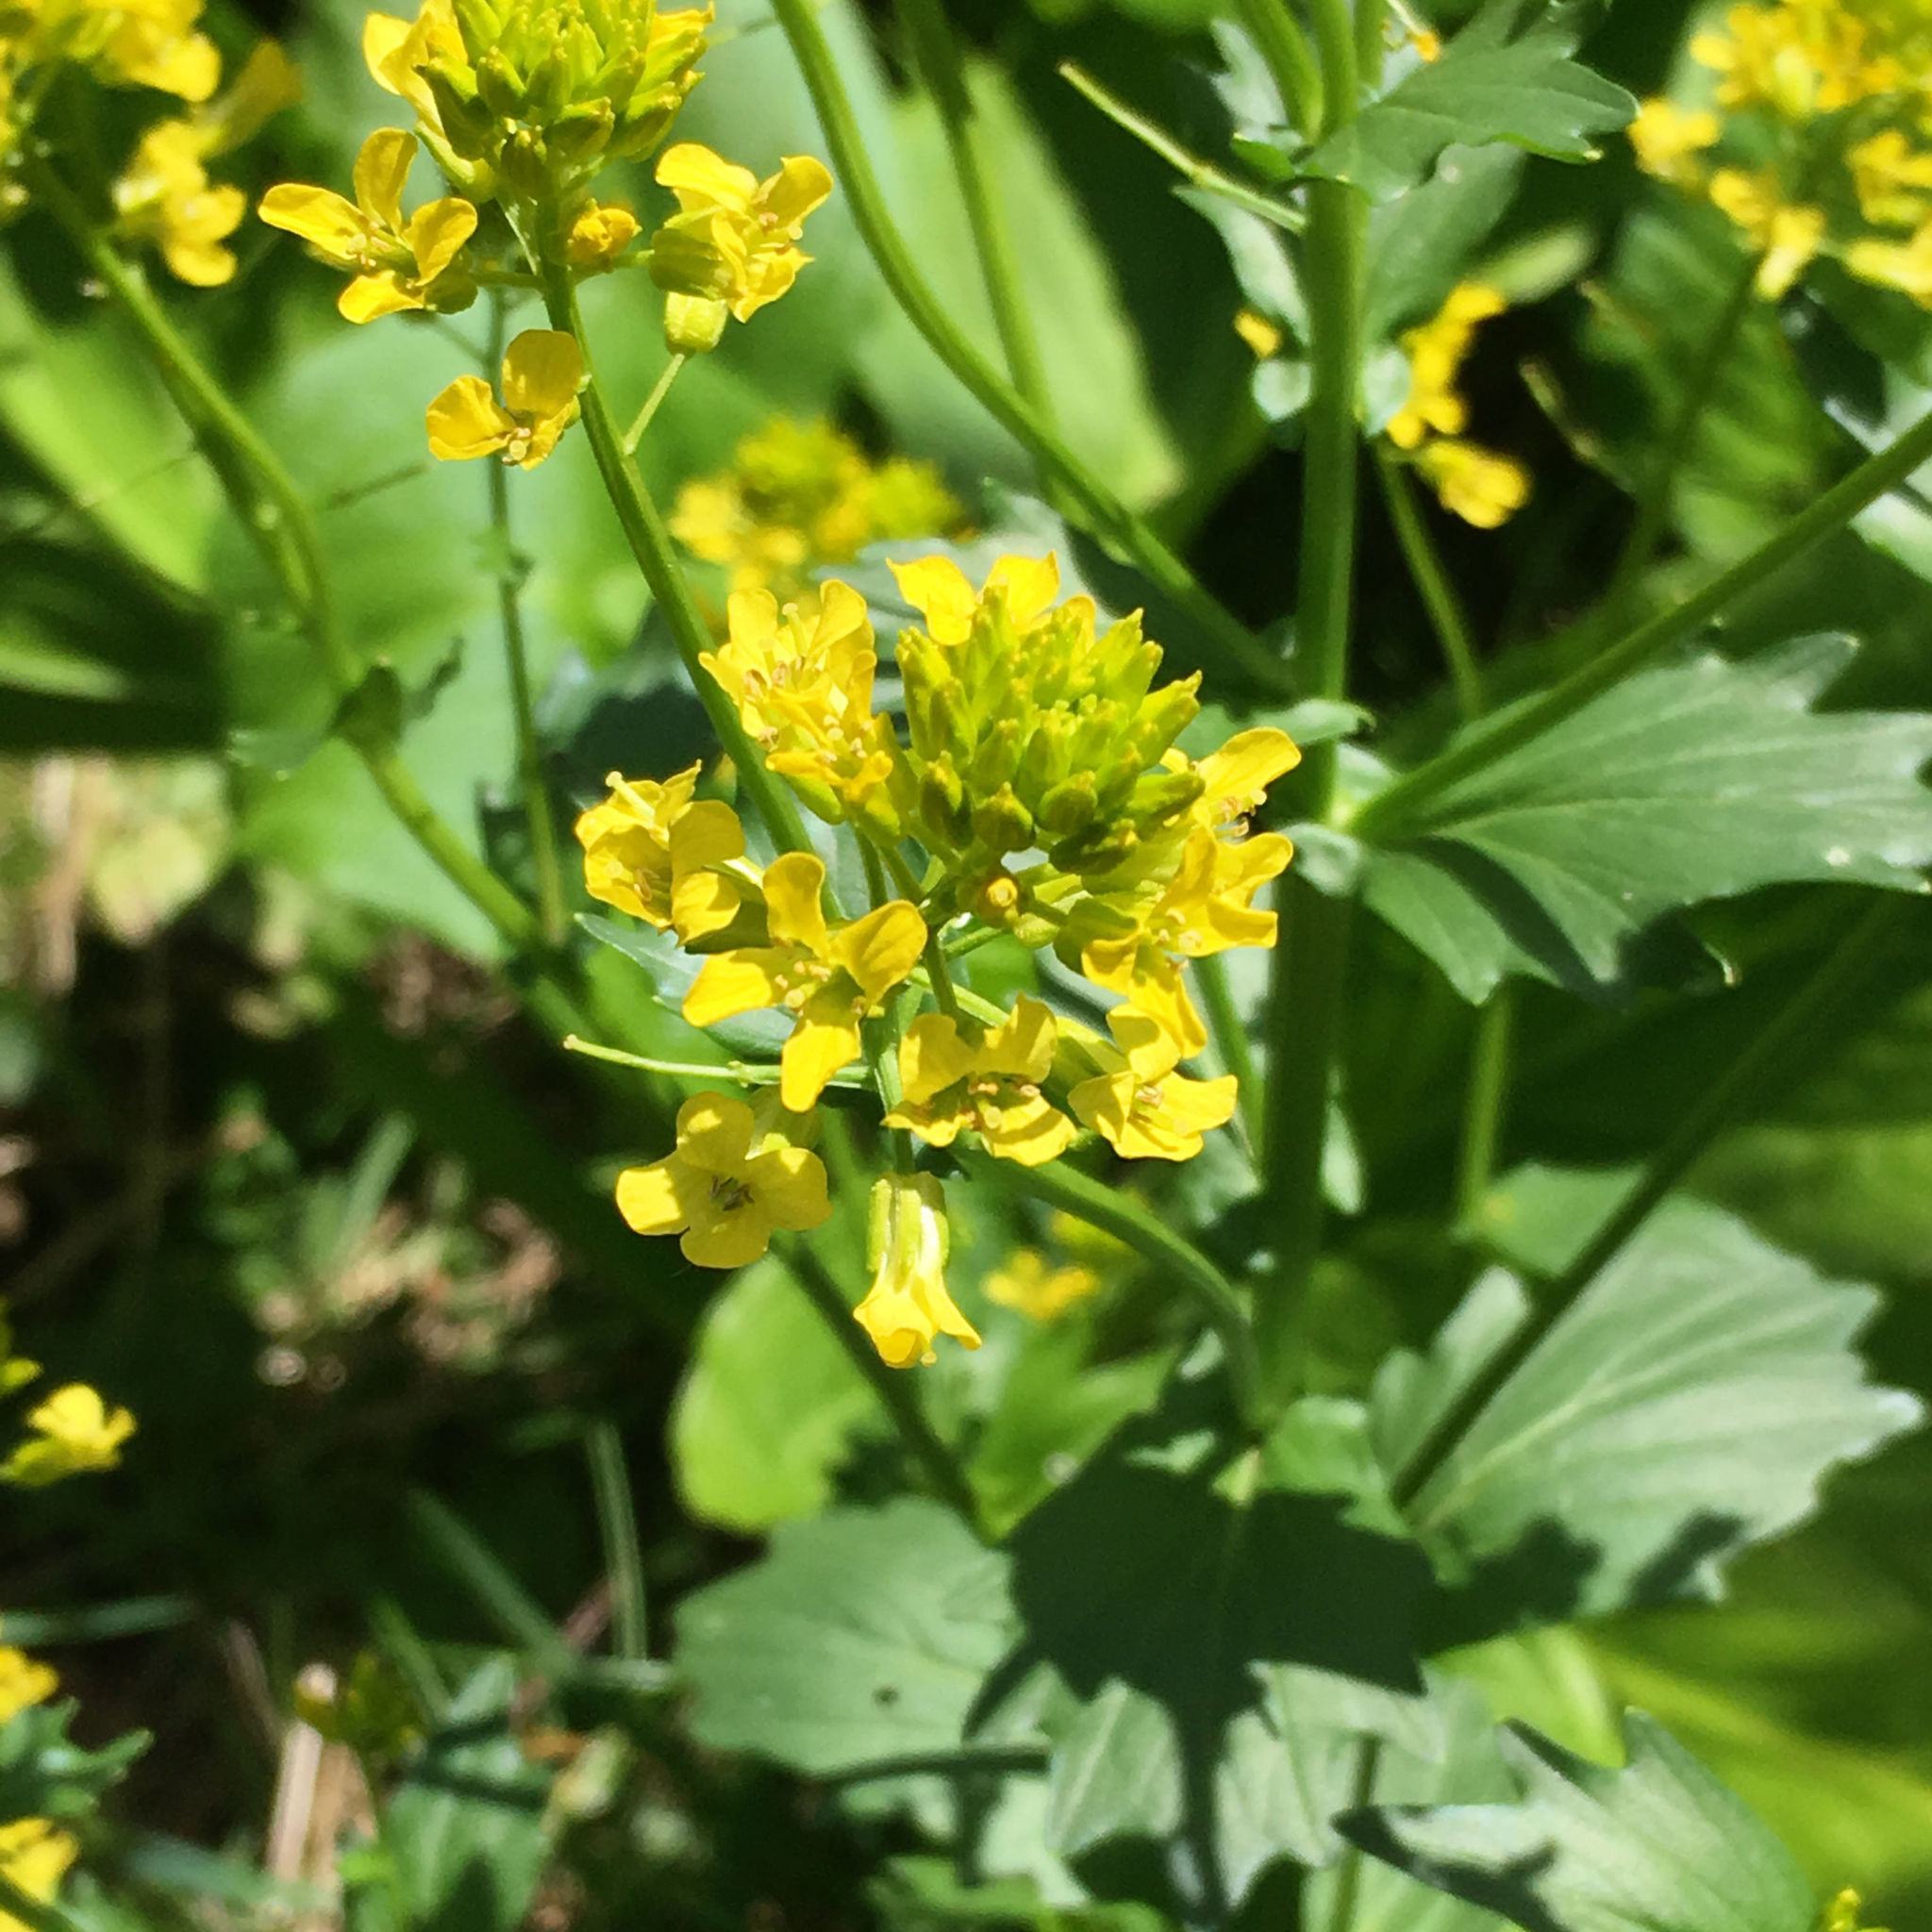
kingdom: Plantae
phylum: Tracheophyta
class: Magnoliopsida
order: Brassicales
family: Brassicaceae
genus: Barbarea
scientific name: Barbarea vulgaris
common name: Cressy-greens
